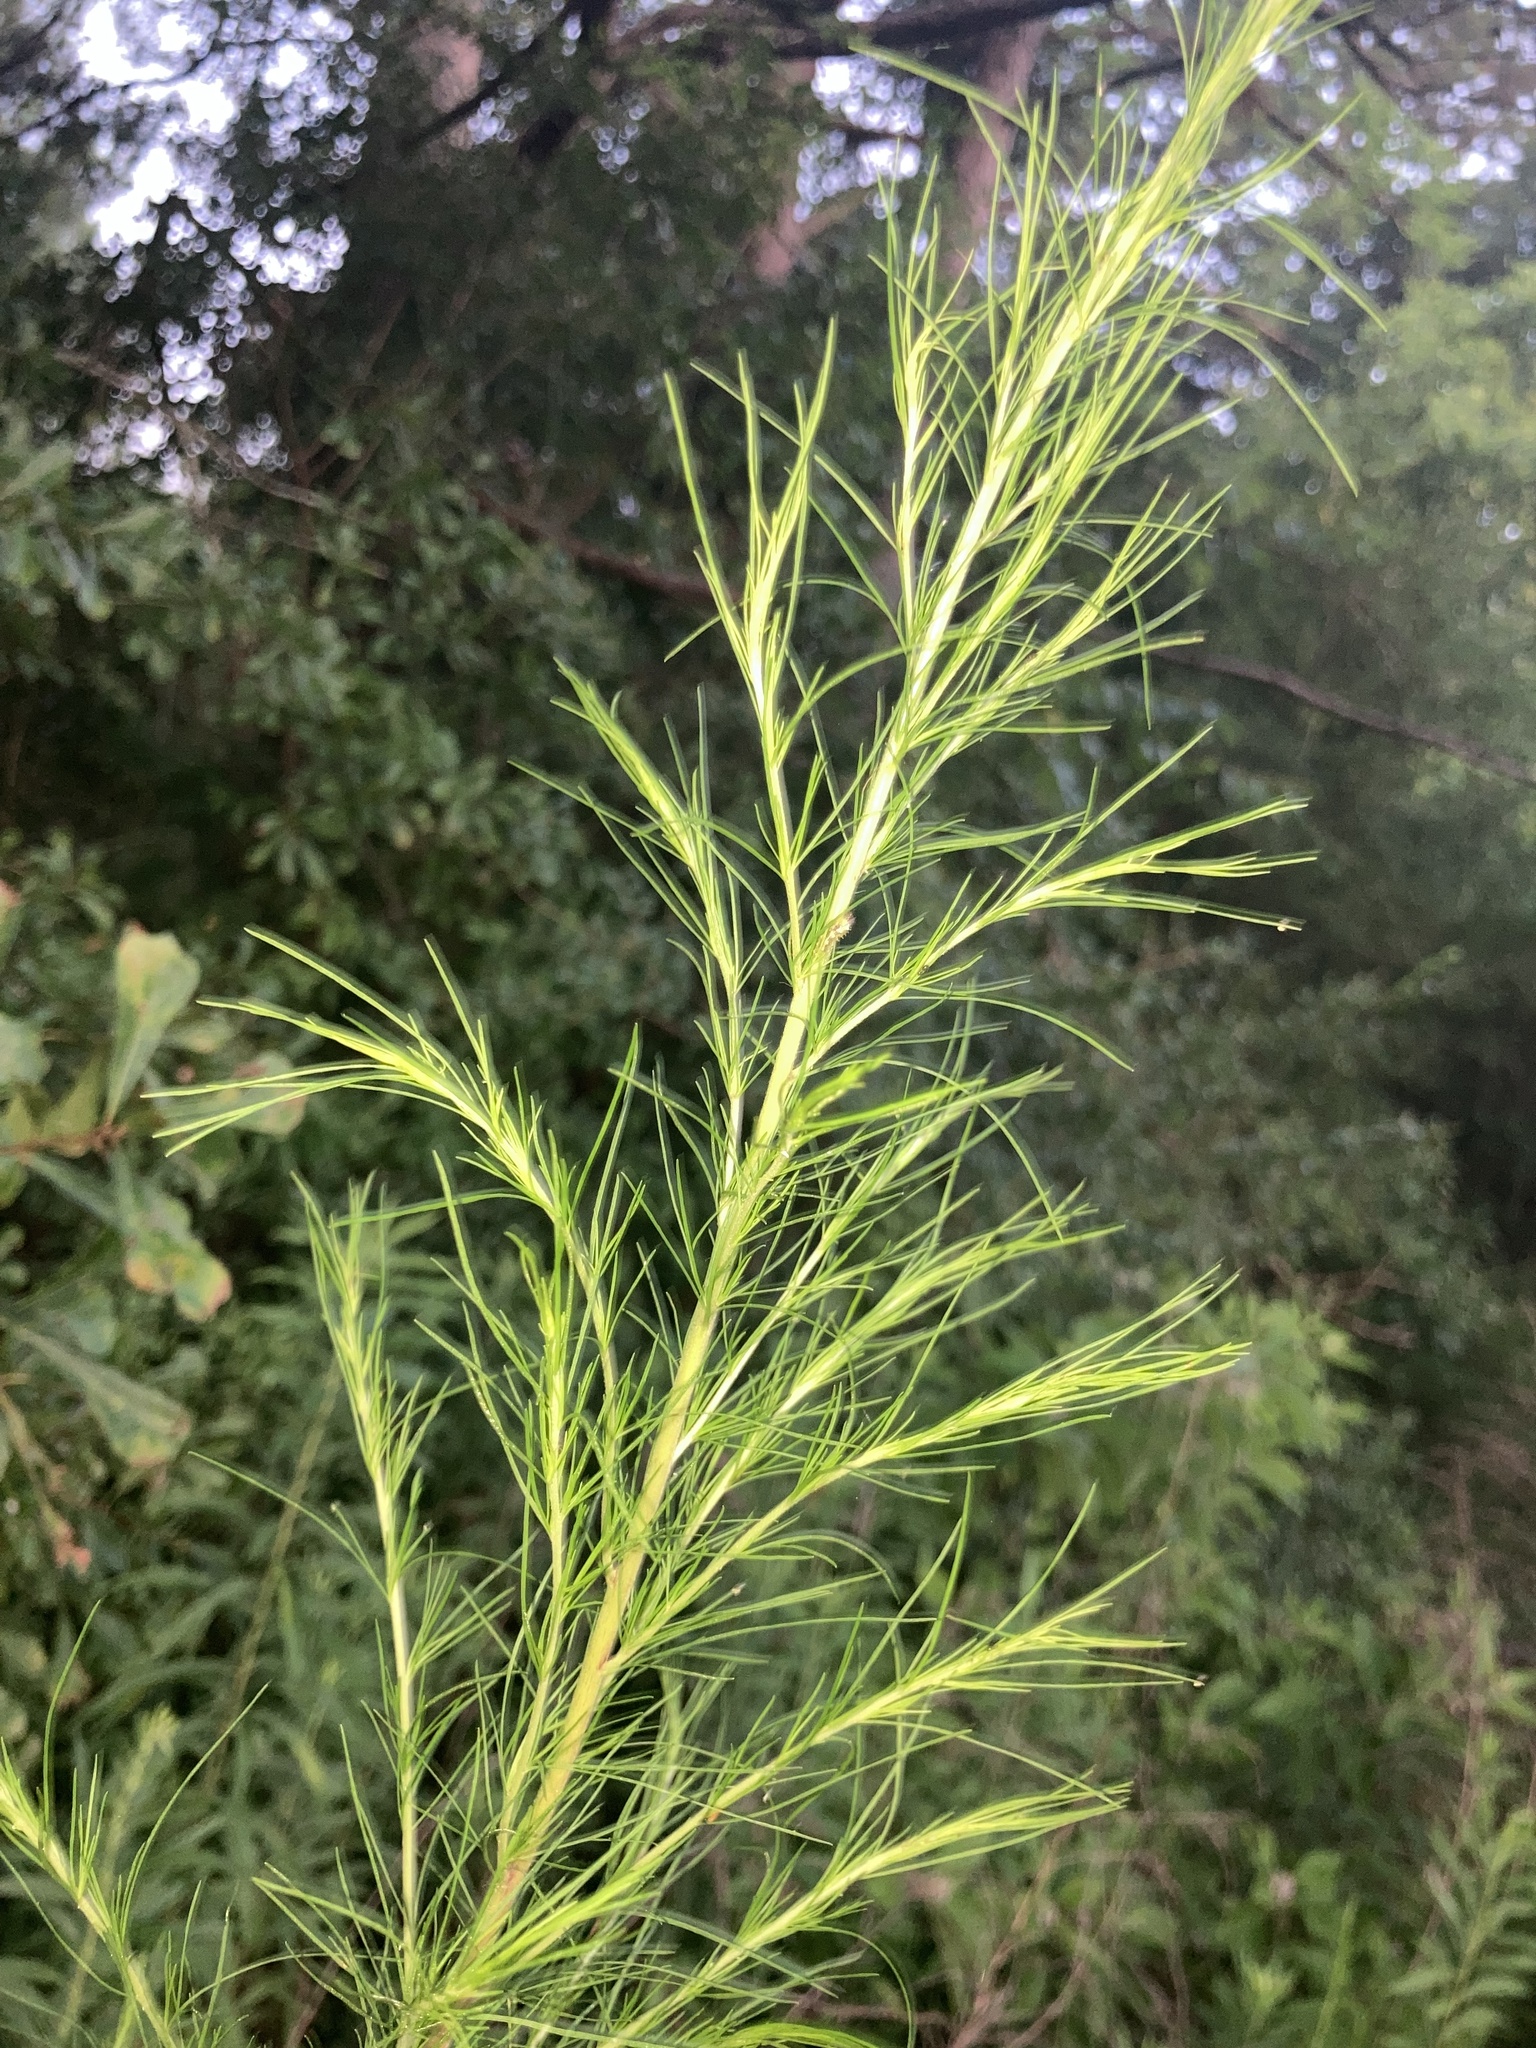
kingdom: Plantae
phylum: Tracheophyta
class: Magnoliopsida
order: Asterales
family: Asteraceae
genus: Eupatorium
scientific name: Eupatorium capillifolium
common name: Dog-fennel
